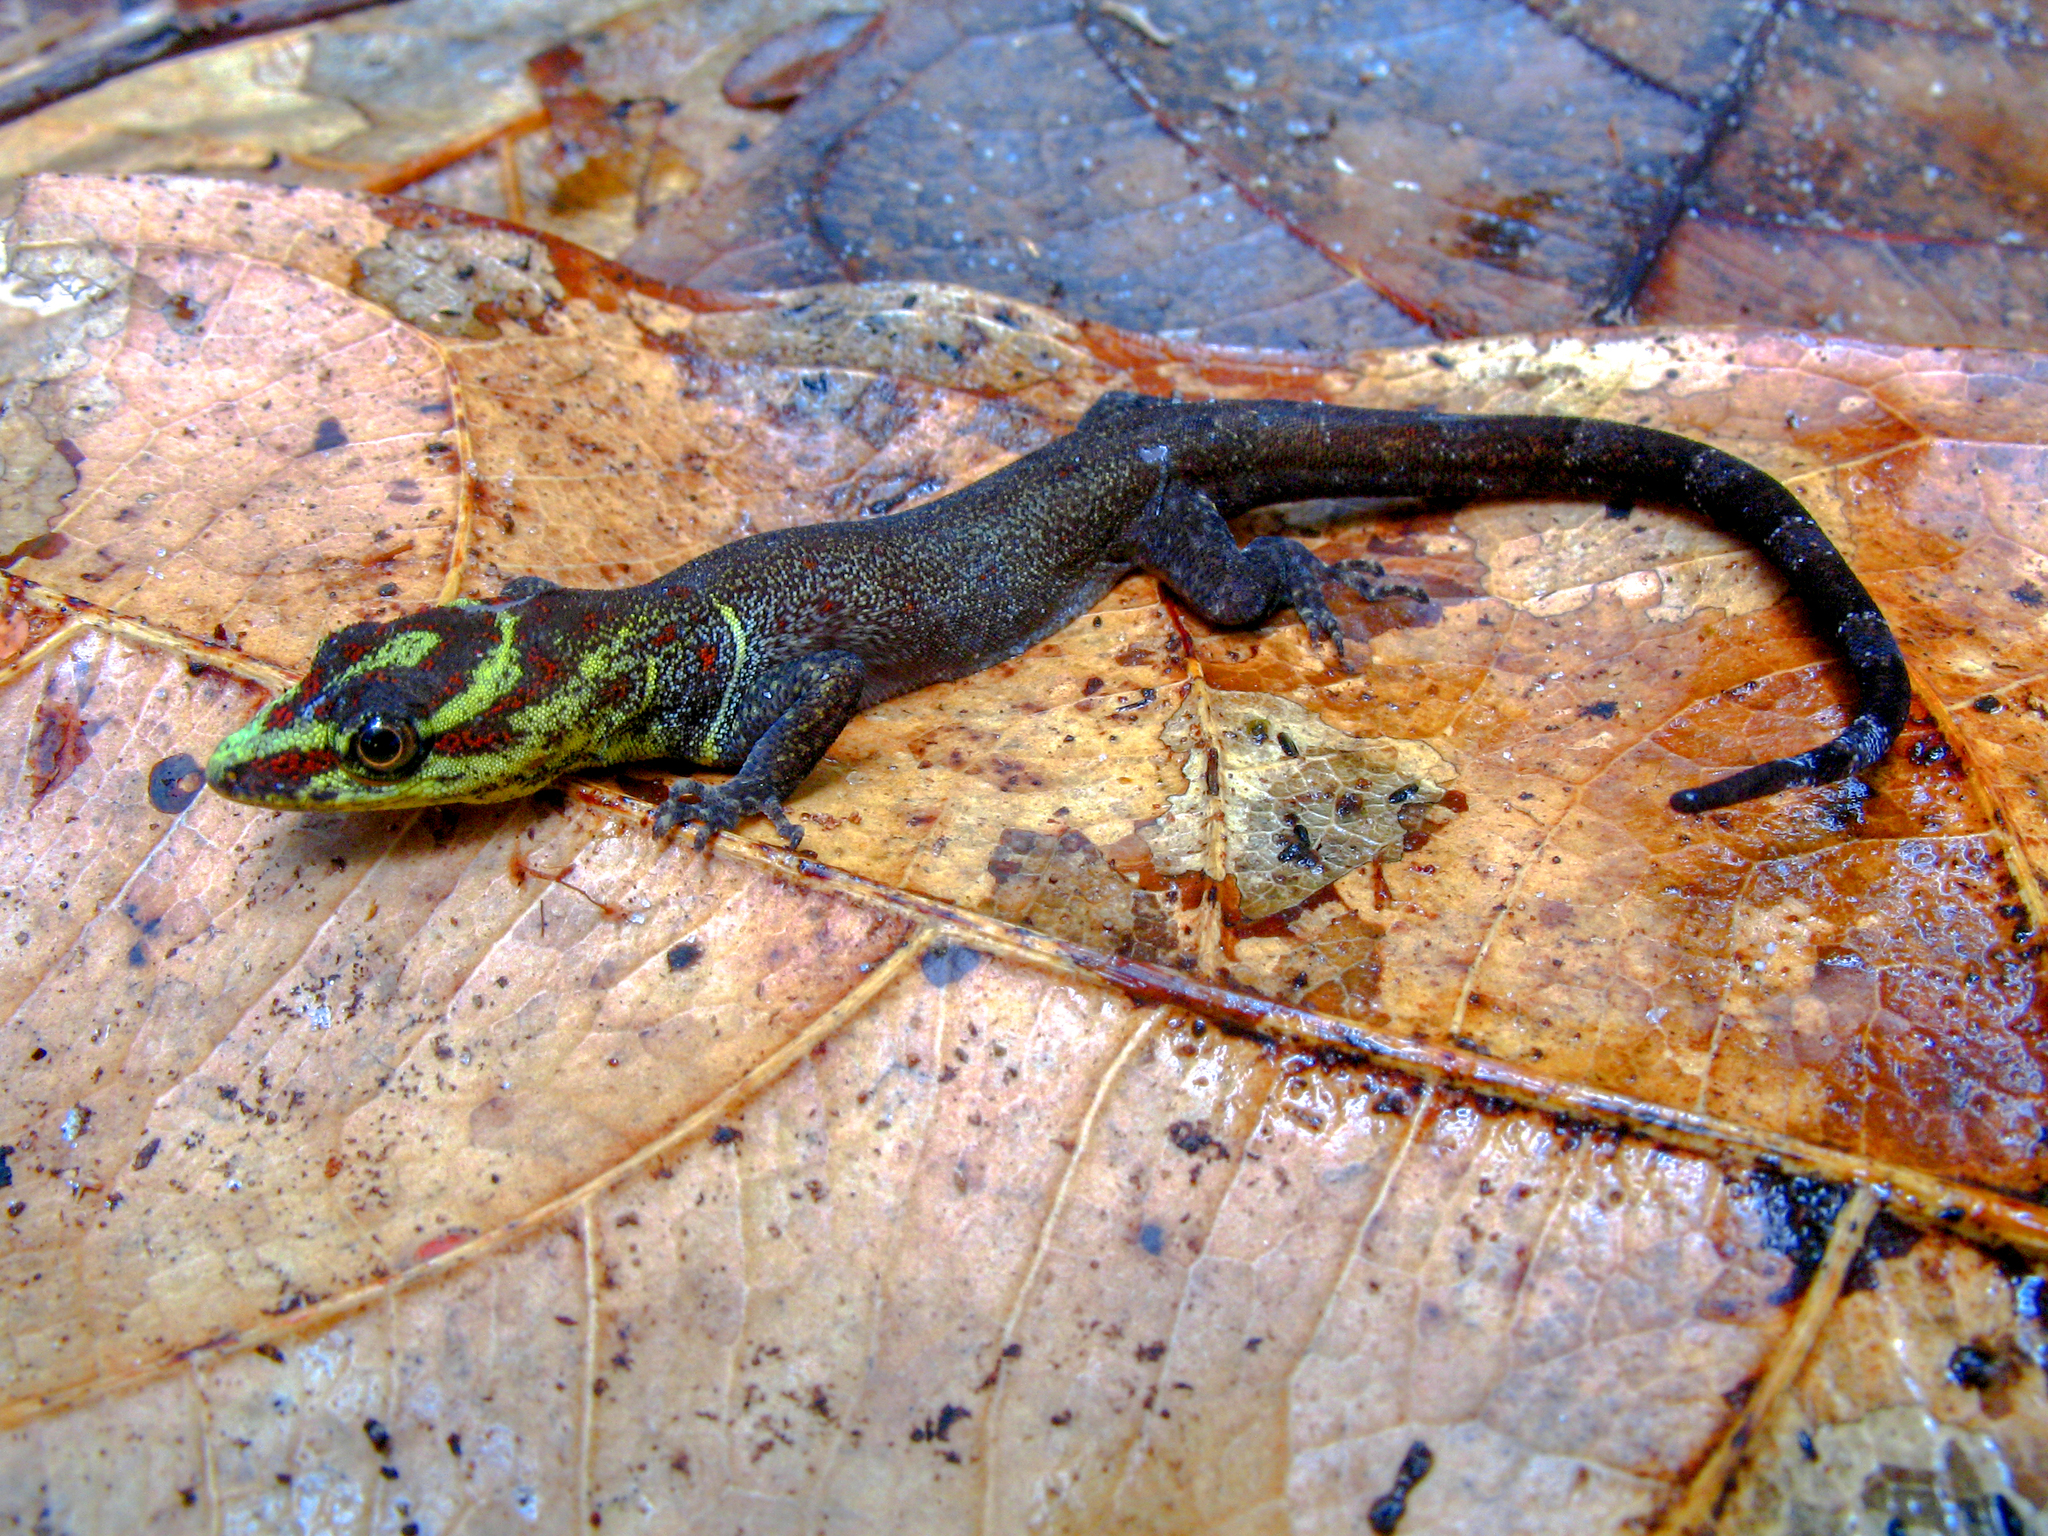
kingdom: Animalia
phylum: Chordata
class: Squamata
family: Sphaerodactylidae
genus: Gonatodes
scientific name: Gonatodes humeralis
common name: South american clawed gecko
